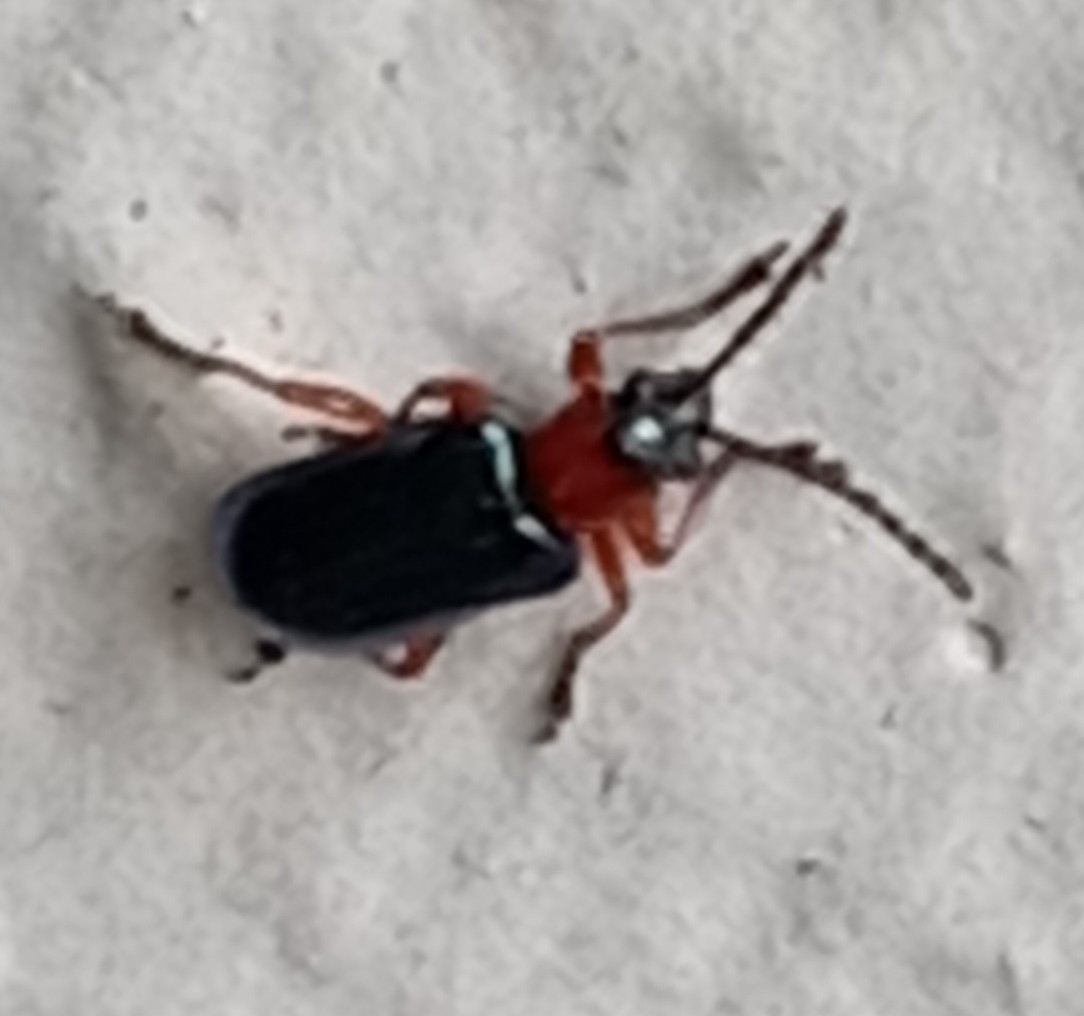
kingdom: Animalia
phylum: Arthropoda
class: Insecta
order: Coleoptera
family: Chrysomelidae
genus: Oulema
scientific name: Oulema
